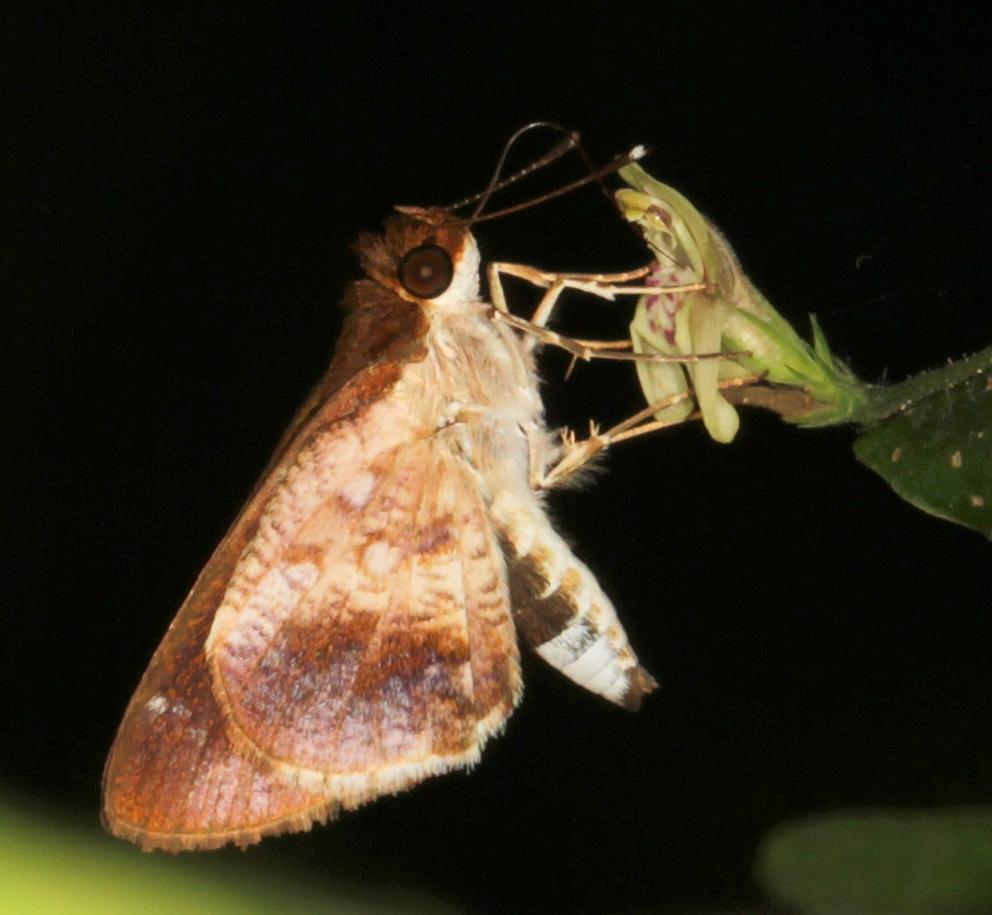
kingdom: Animalia
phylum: Arthropoda
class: Insecta
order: Lepidoptera
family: Hesperiidae
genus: Acleros
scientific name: Acleros mackenii
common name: Shade dart
